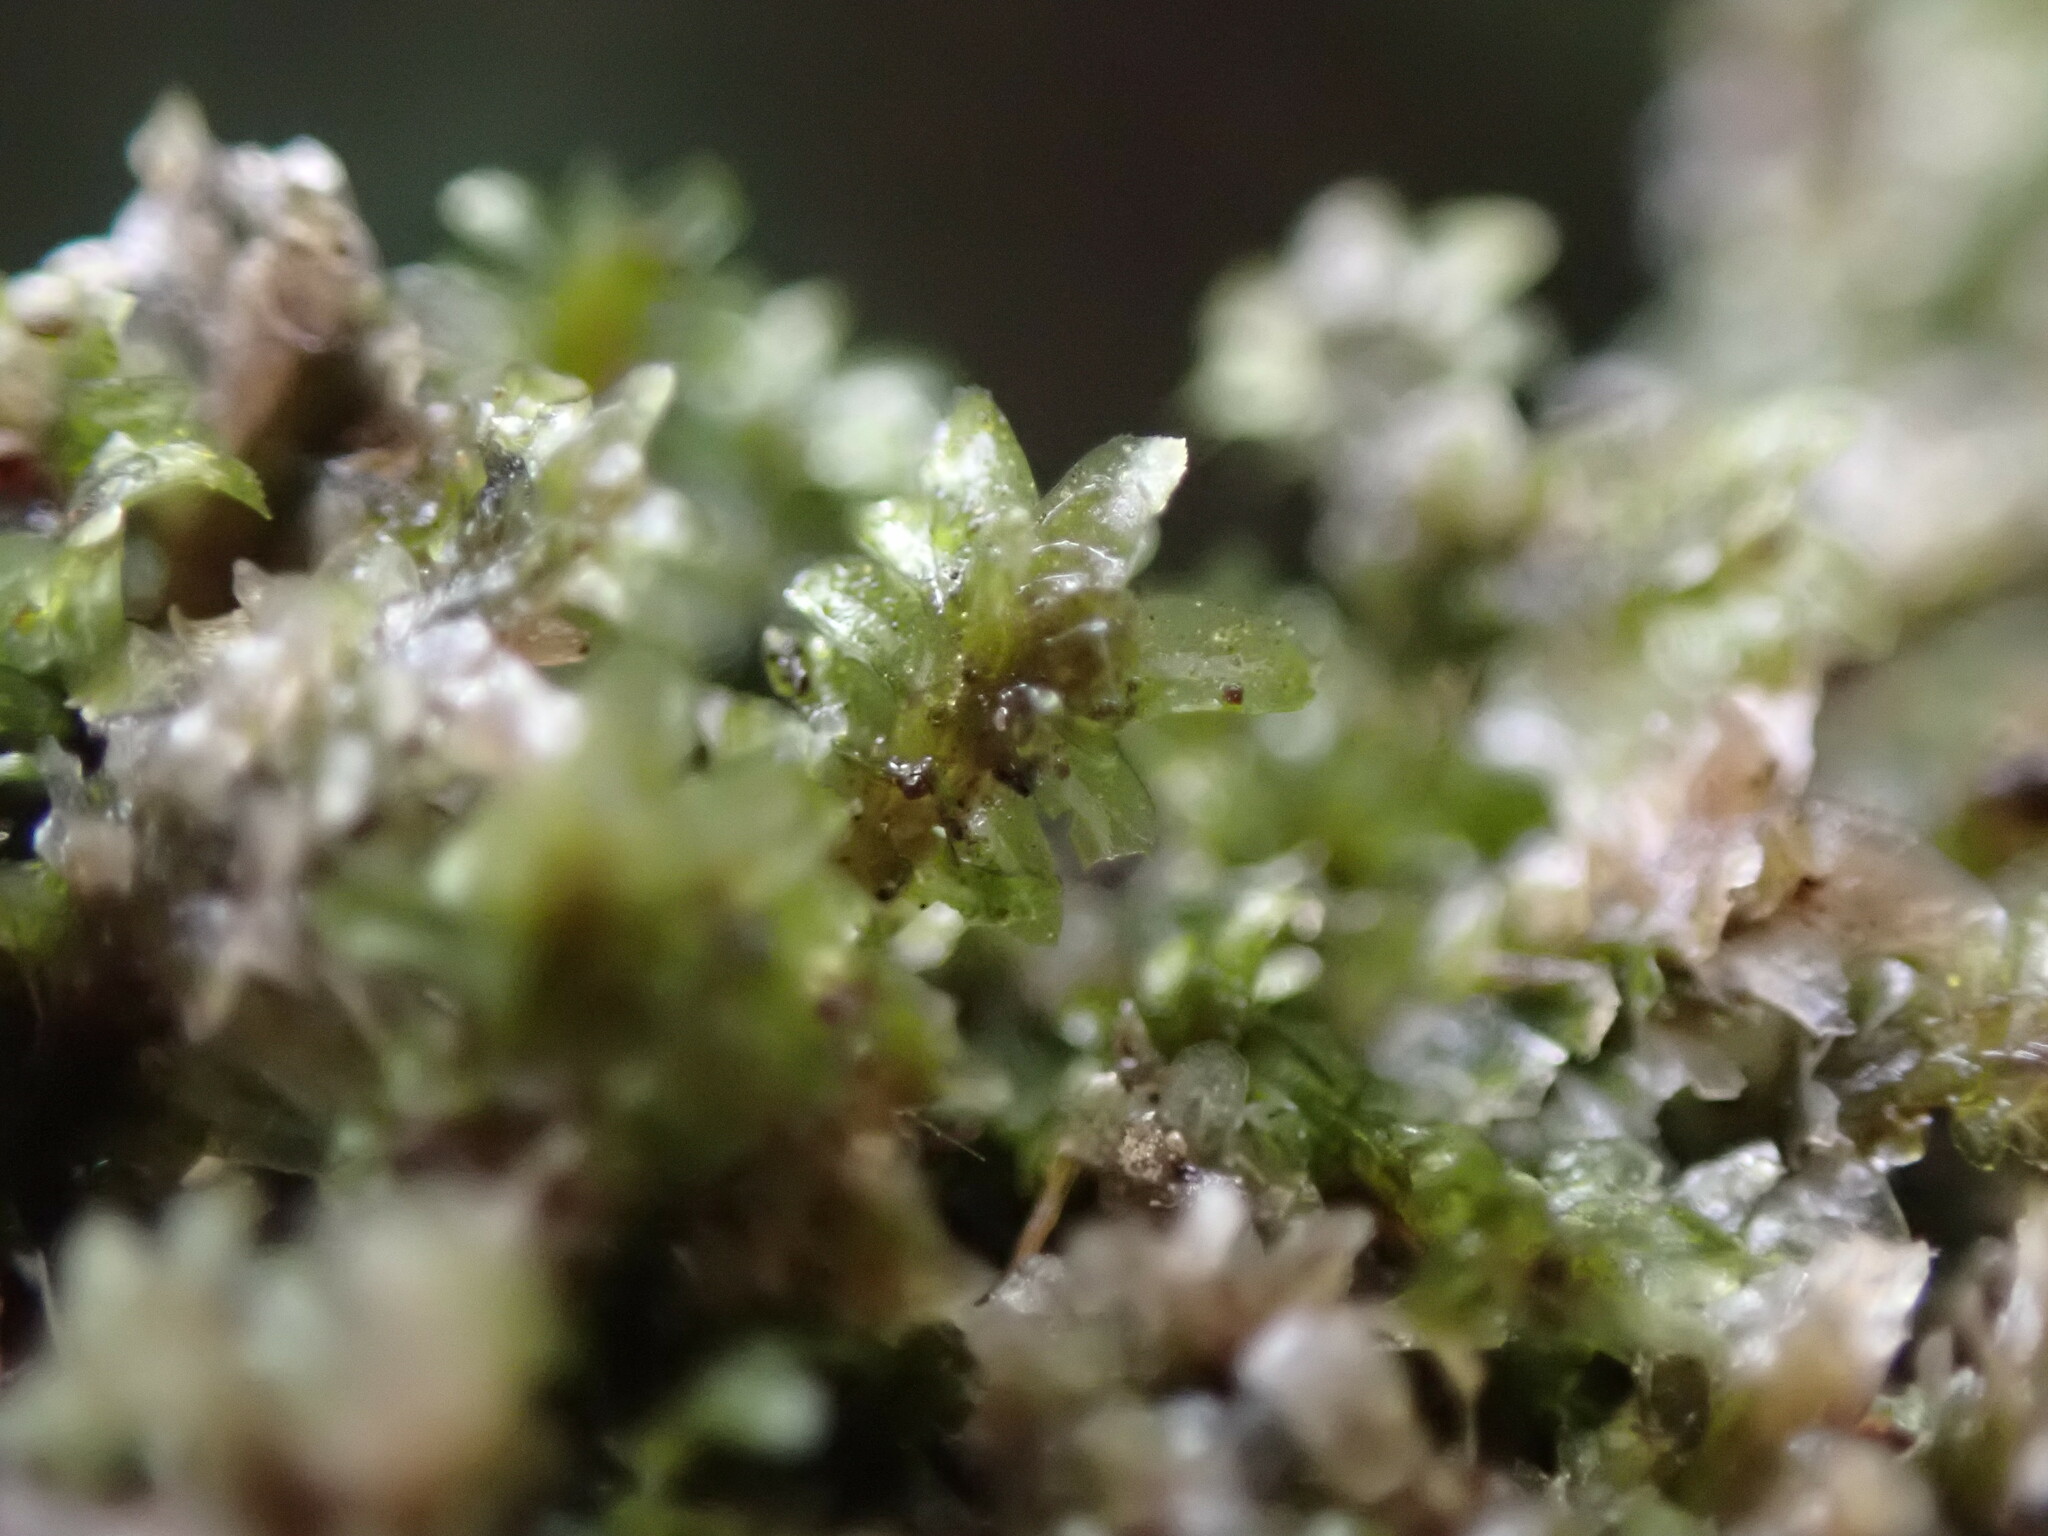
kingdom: Plantae
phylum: Marchantiophyta
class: Jungermanniopsida
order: Jungermanniales
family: Scapaniaceae
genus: Diplophyllum
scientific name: Diplophyllum albicans
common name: White earwort
